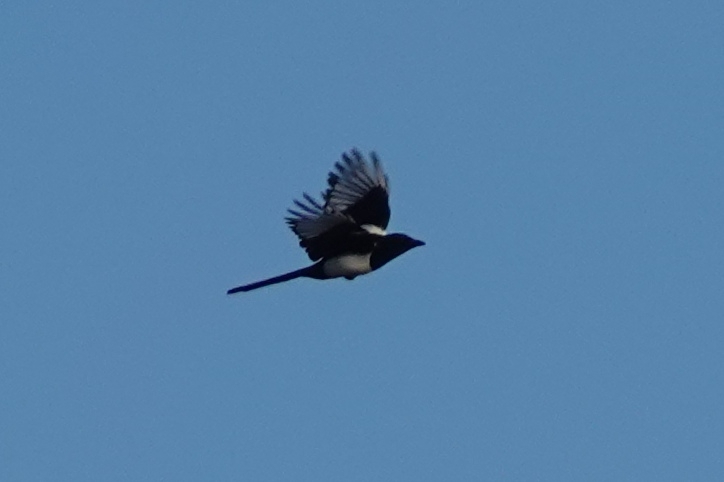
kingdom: Animalia
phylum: Chordata
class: Aves
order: Passeriformes
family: Corvidae
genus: Pica
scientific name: Pica pica
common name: Eurasian magpie
